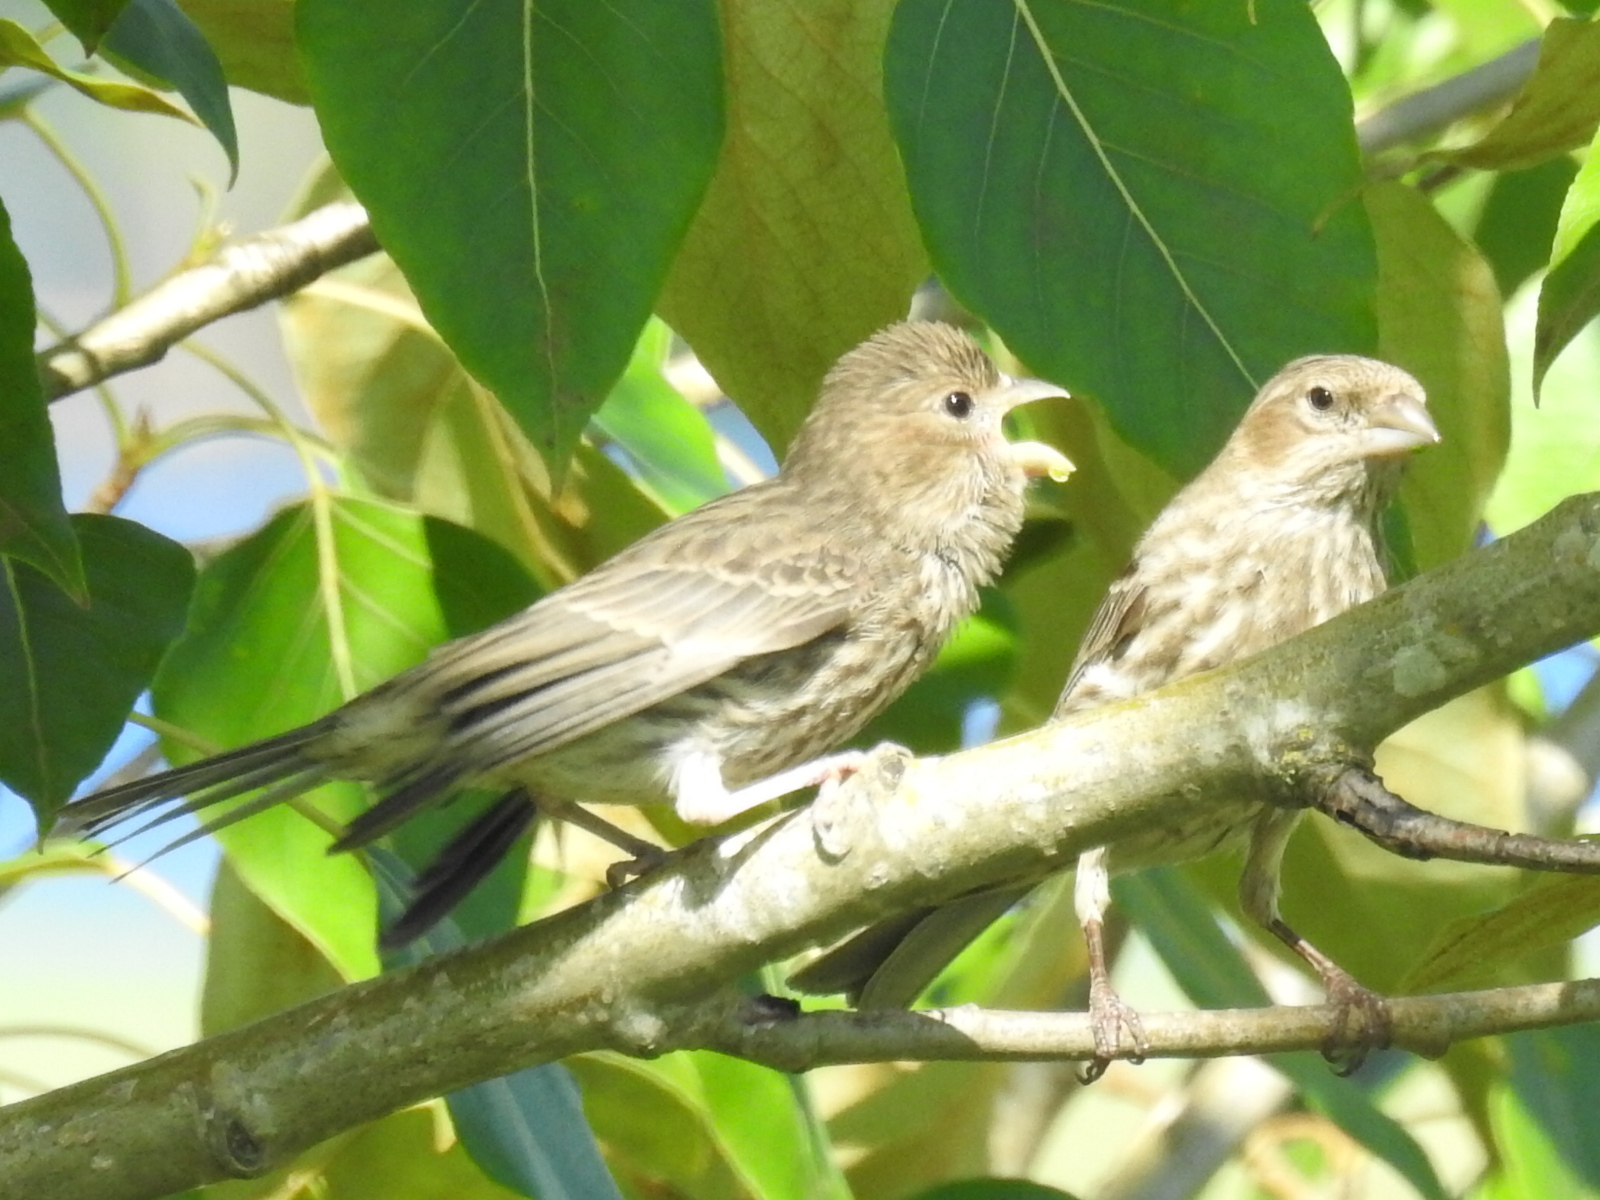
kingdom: Animalia
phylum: Chordata
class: Aves
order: Passeriformes
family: Fringillidae
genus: Haemorhous
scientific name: Haemorhous mexicanus
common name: House finch
